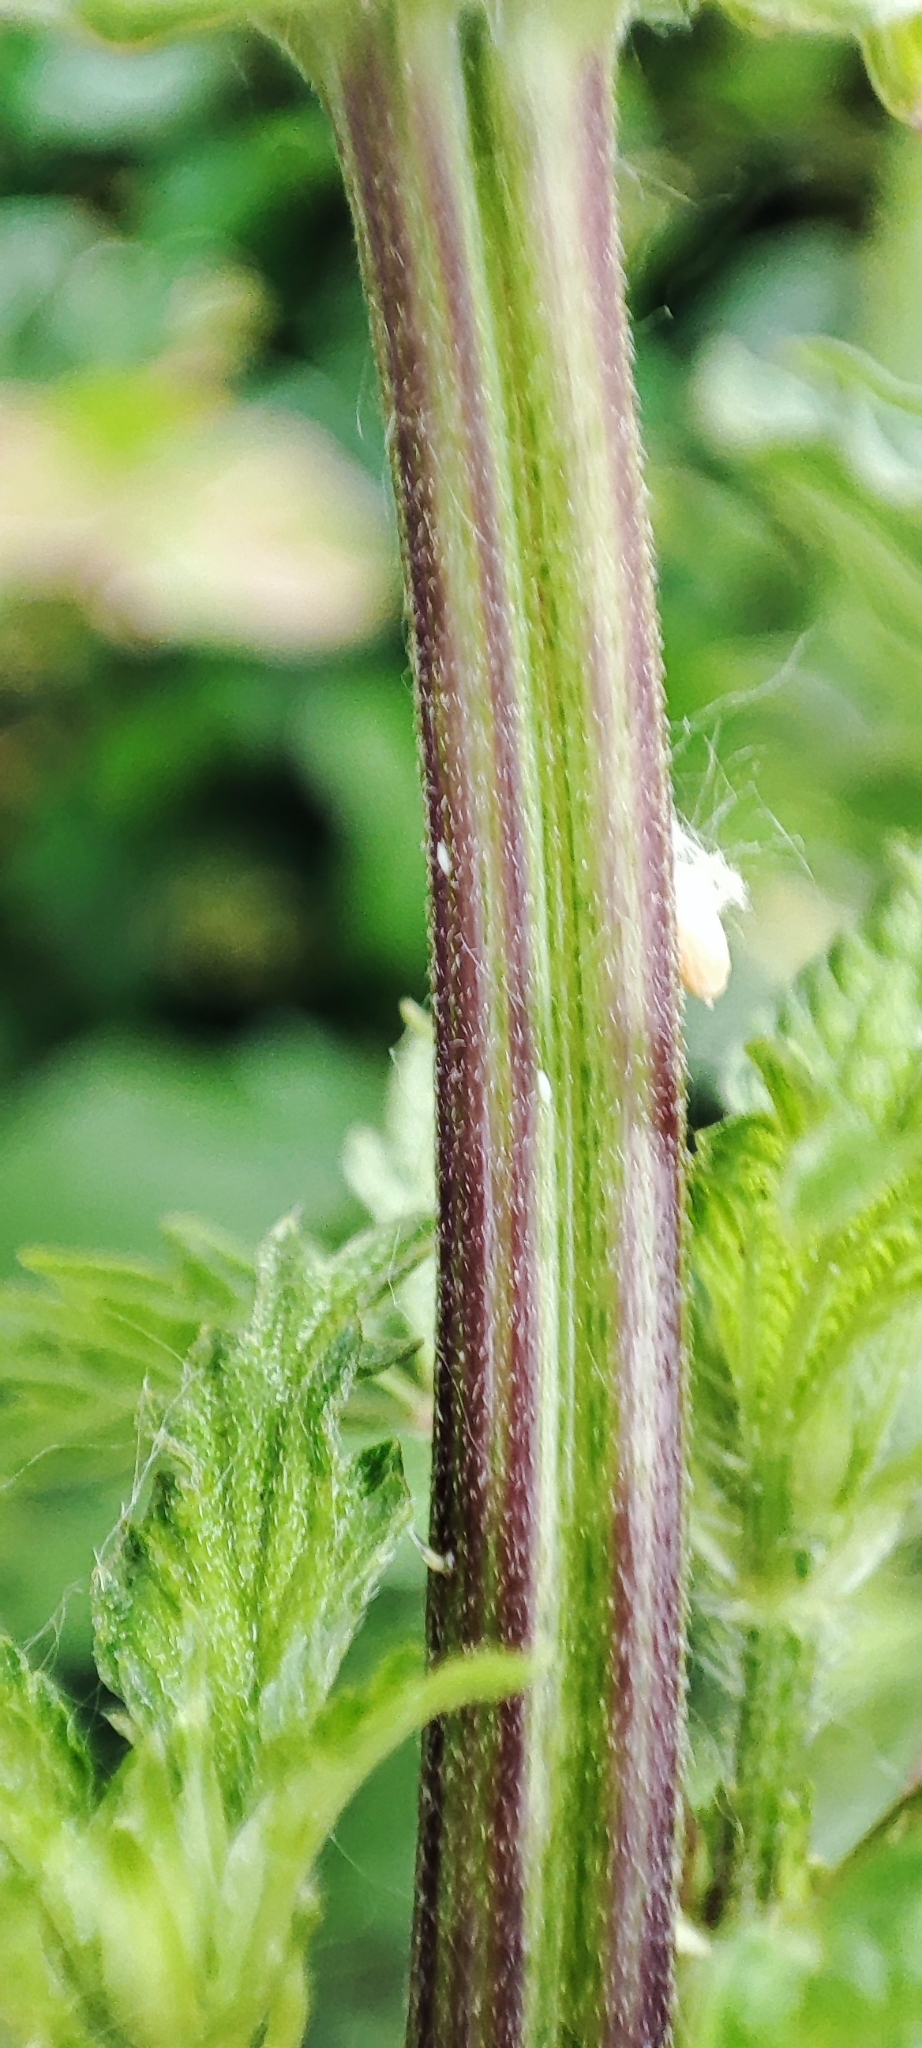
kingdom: Plantae
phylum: Tracheophyta
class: Magnoliopsida
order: Rosales
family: Urticaceae
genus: Urtica
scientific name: Urtica dioica
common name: Common nettle
